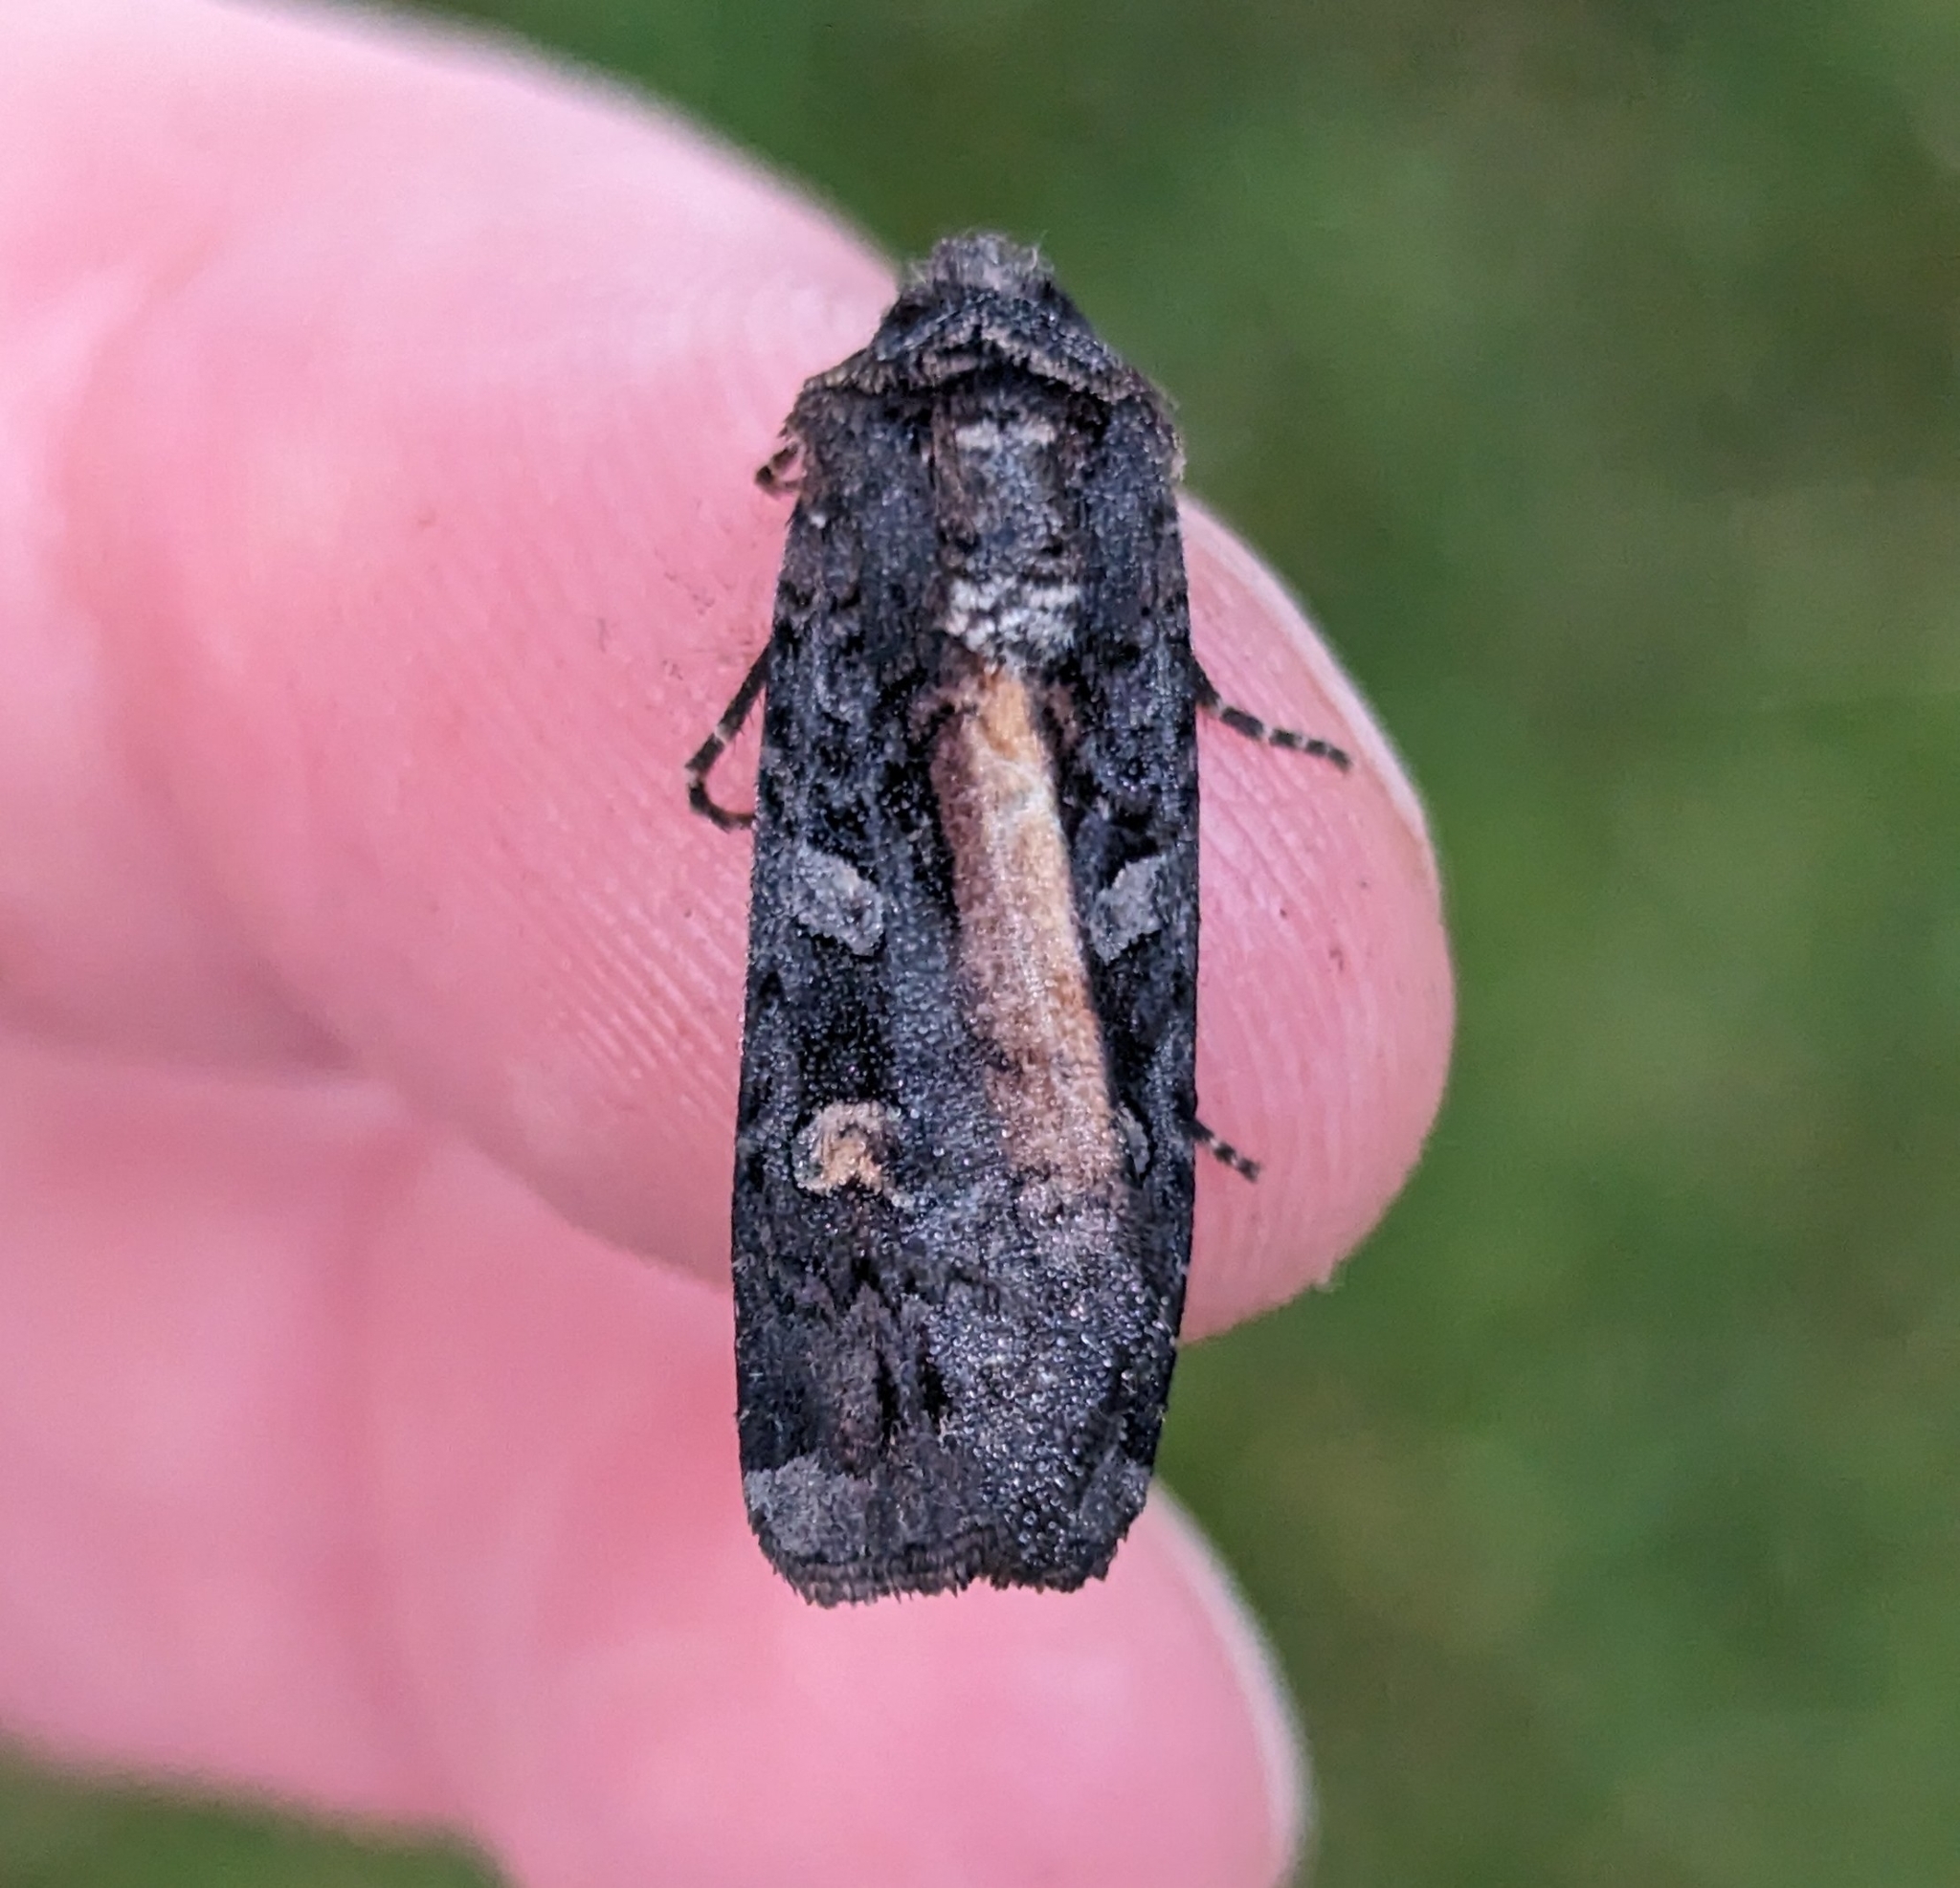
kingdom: Animalia
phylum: Arthropoda
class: Insecta
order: Lepidoptera
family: Noctuidae
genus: Actebia
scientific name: Actebia fennica
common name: Eversmann's rustic
